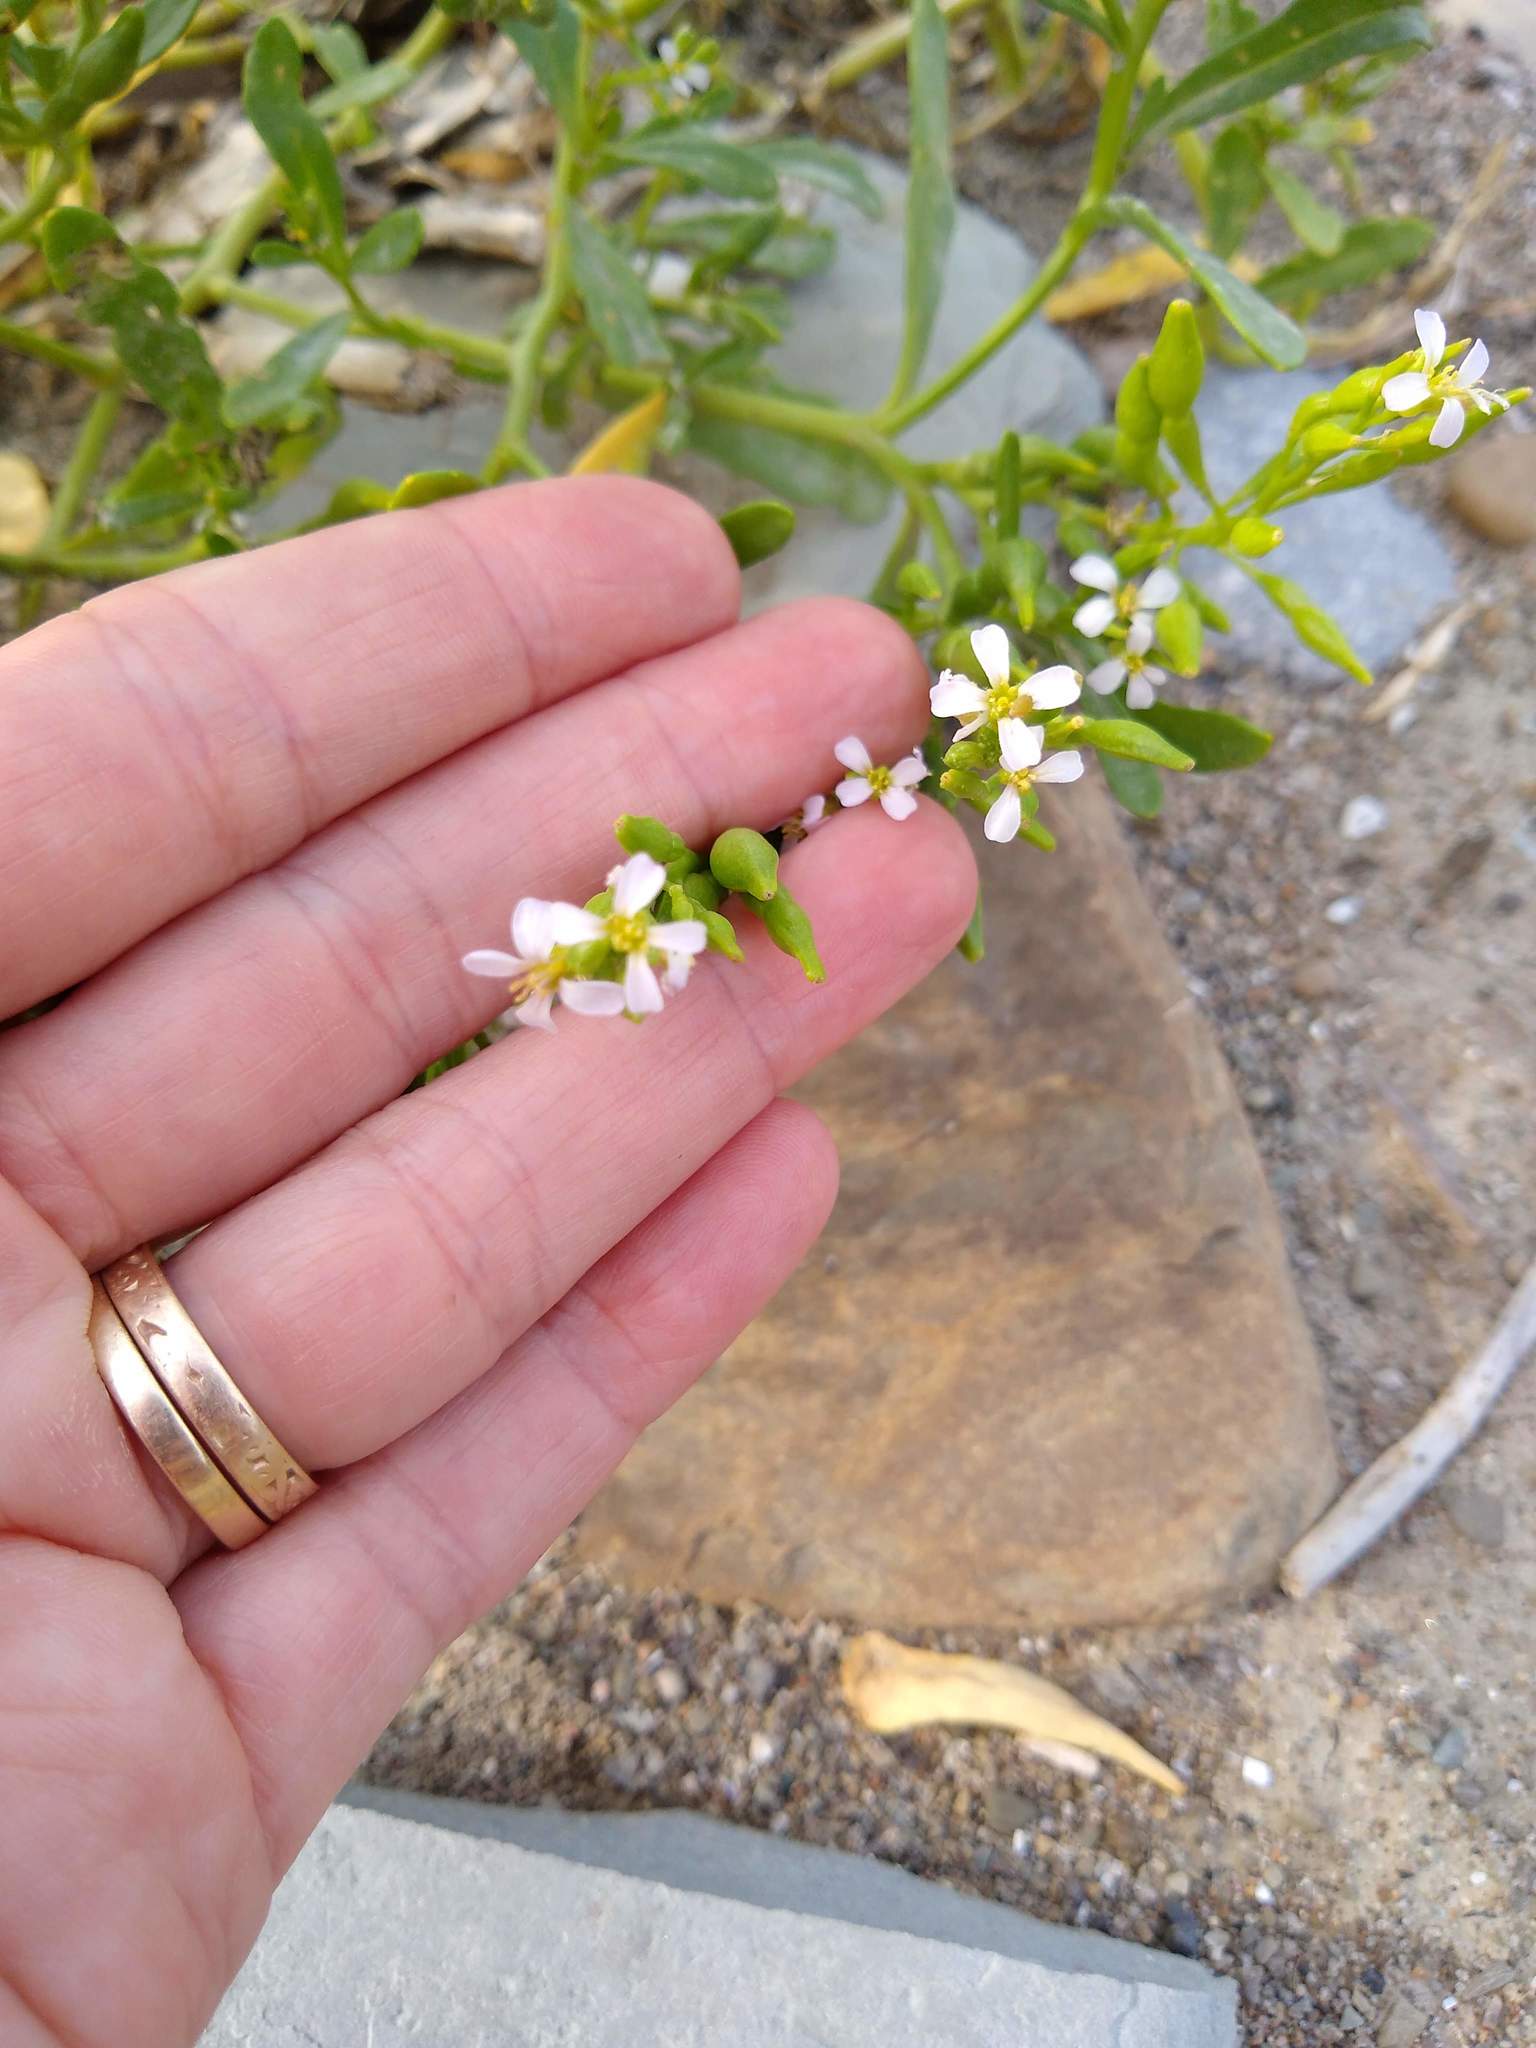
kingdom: Plantae
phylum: Tracheophyta
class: Magnoliopsida
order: Brassicales
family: Brassicaceae
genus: Cakile
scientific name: Cakile edentula
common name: American sea rocket
